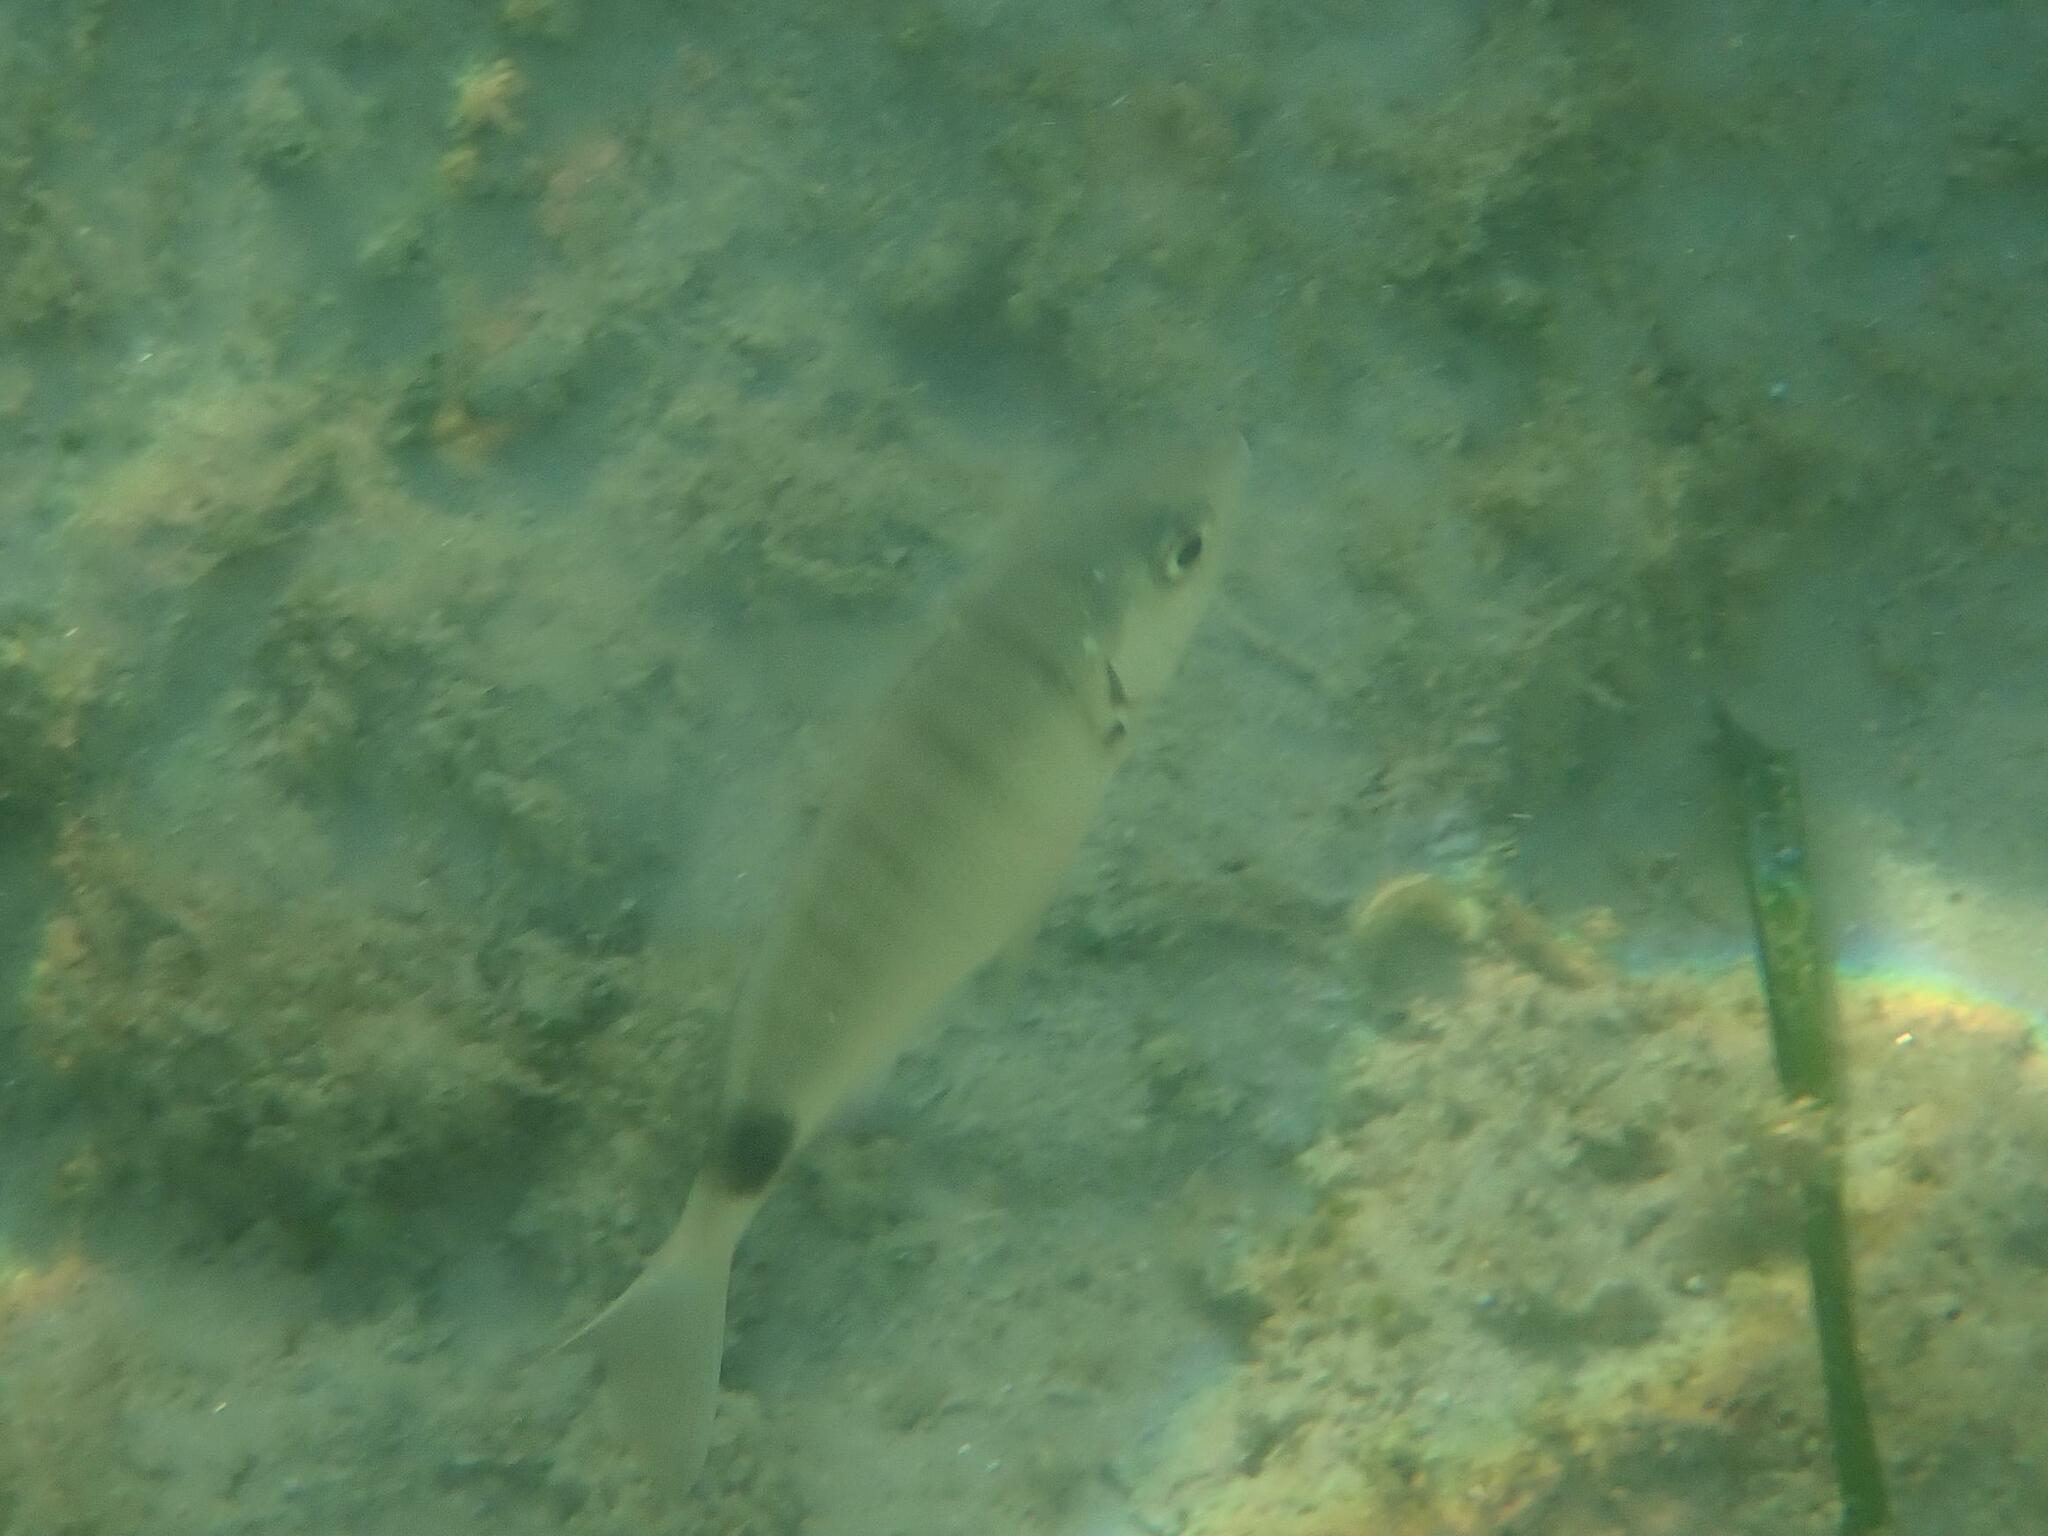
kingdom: Animalia
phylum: Chordata
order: Perciformes
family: Sparidae
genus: Diplodus
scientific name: Diplodus sargus
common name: White seabream
